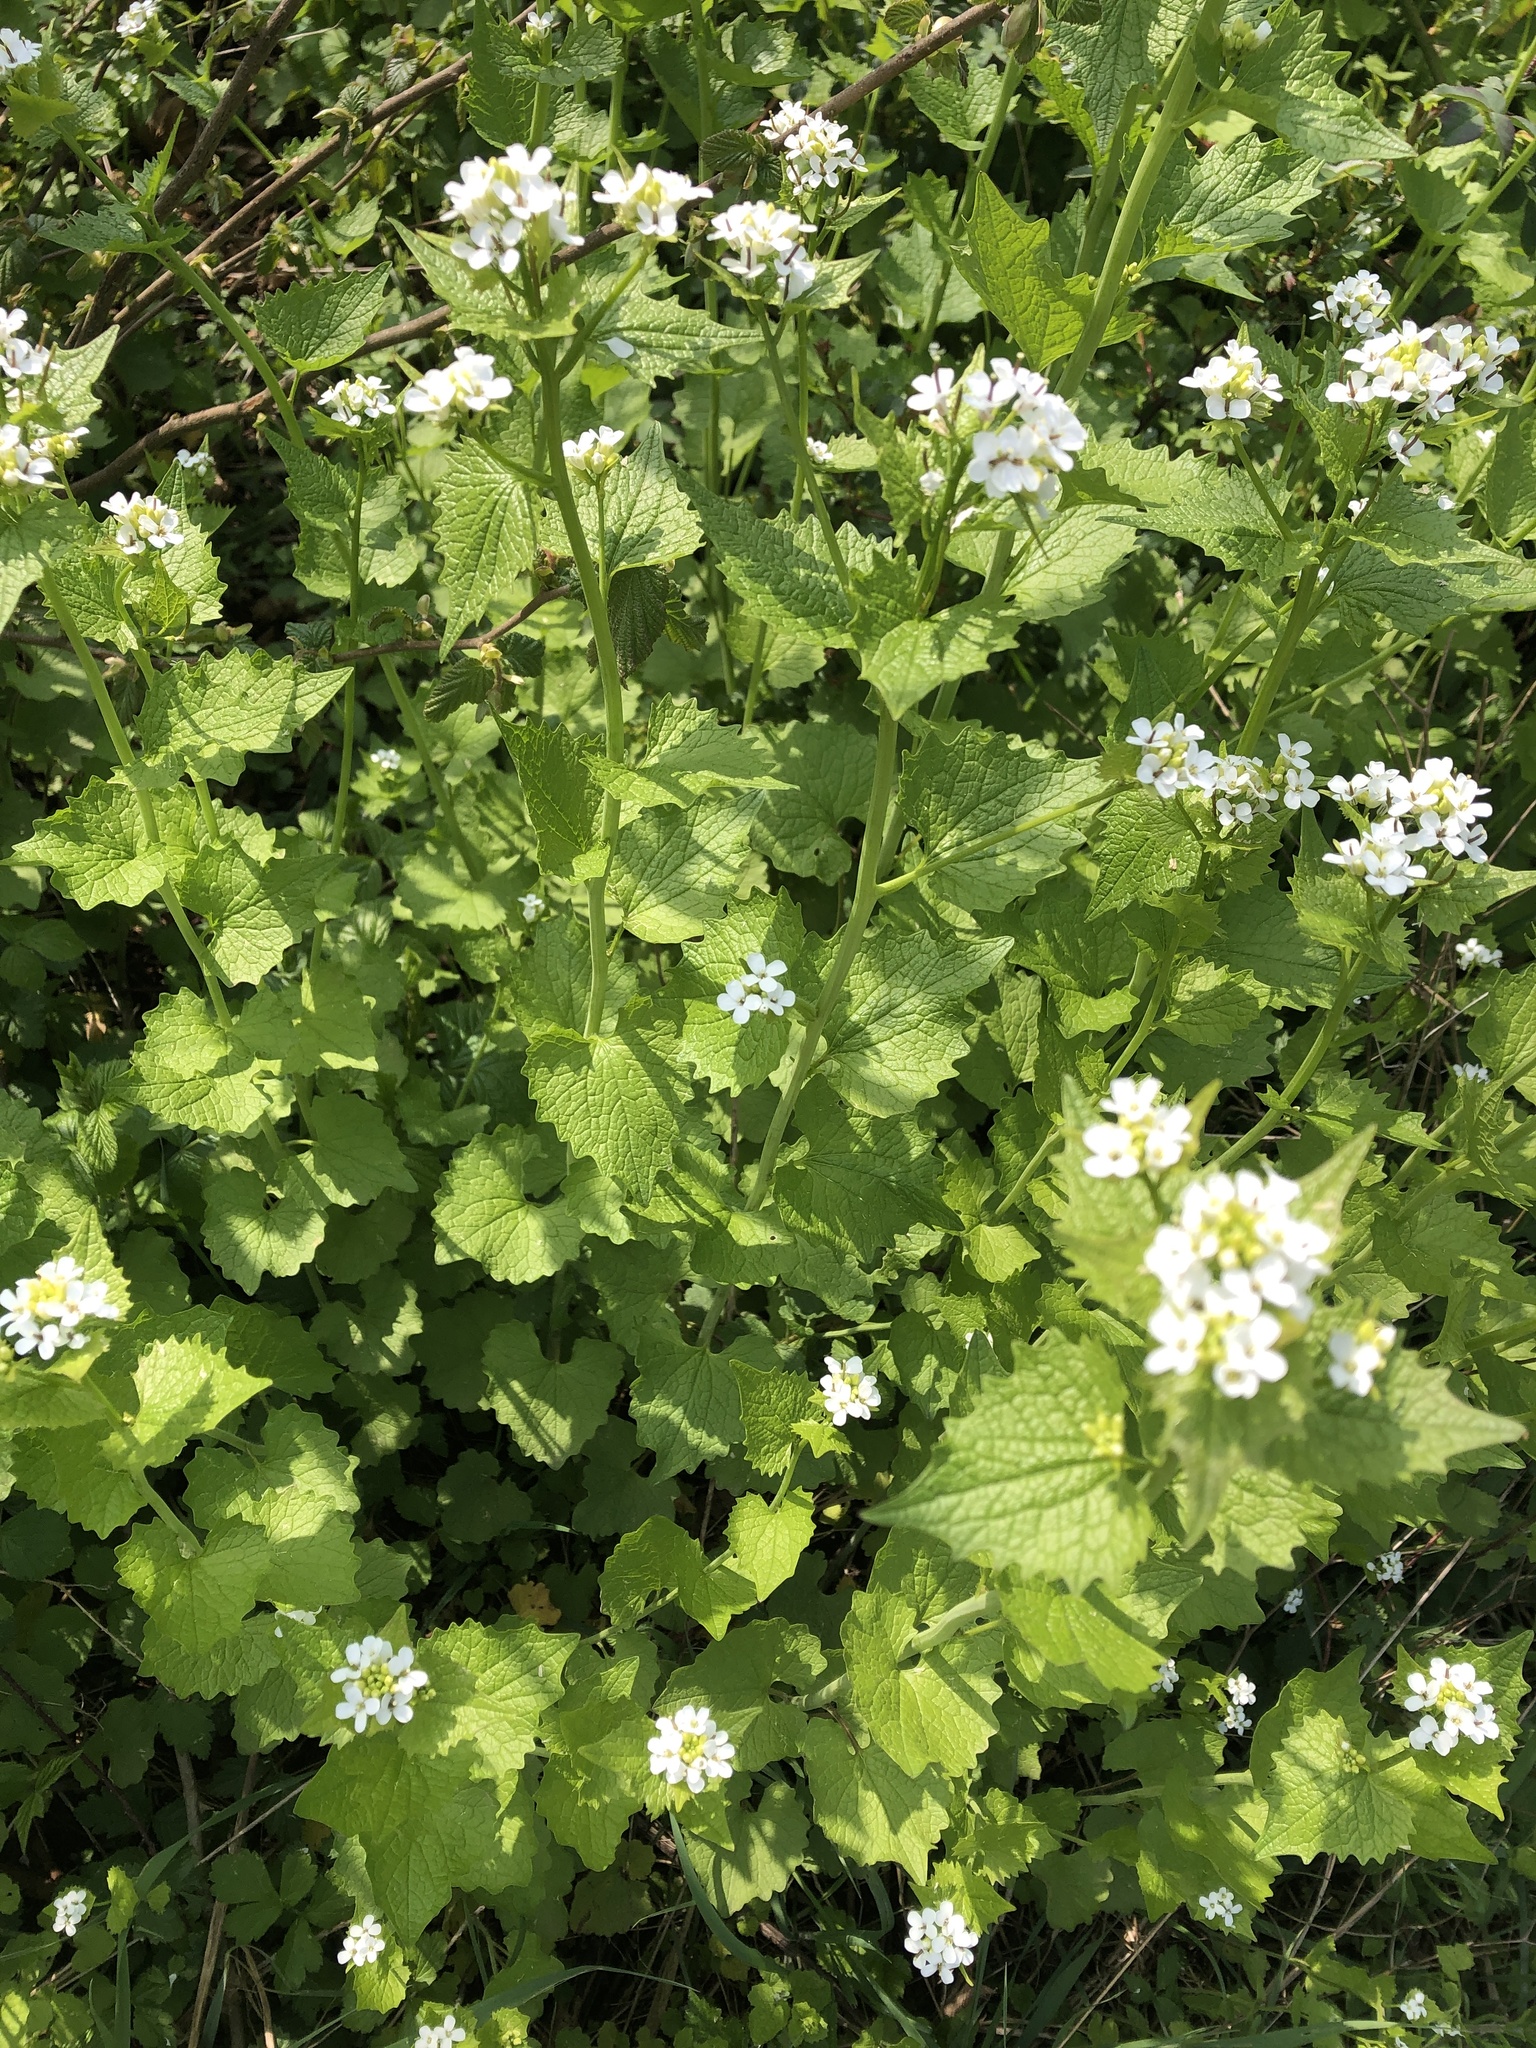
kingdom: Plantae
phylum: Tracheophyta
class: Magnoliopsida
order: Brassicales
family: Brassicaceae
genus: Alliaria
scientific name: Alliaria petiolata
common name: Garlic mustard
